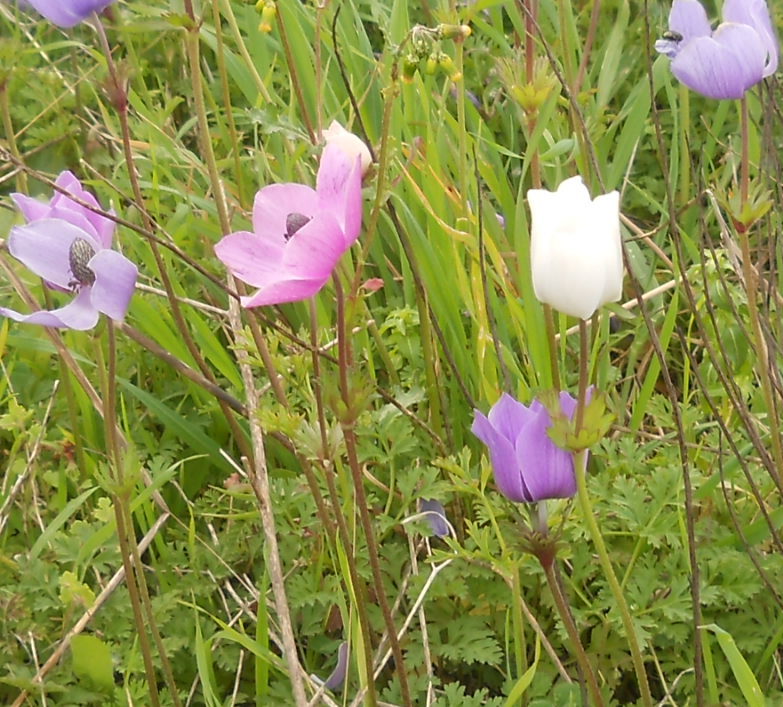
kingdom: Plantae
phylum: Tracheophyta
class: Magnoliopsida
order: Ranunculales
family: Ranunculaceae
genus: Anemone
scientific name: Anemone coronaria
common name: Poppy anemone
